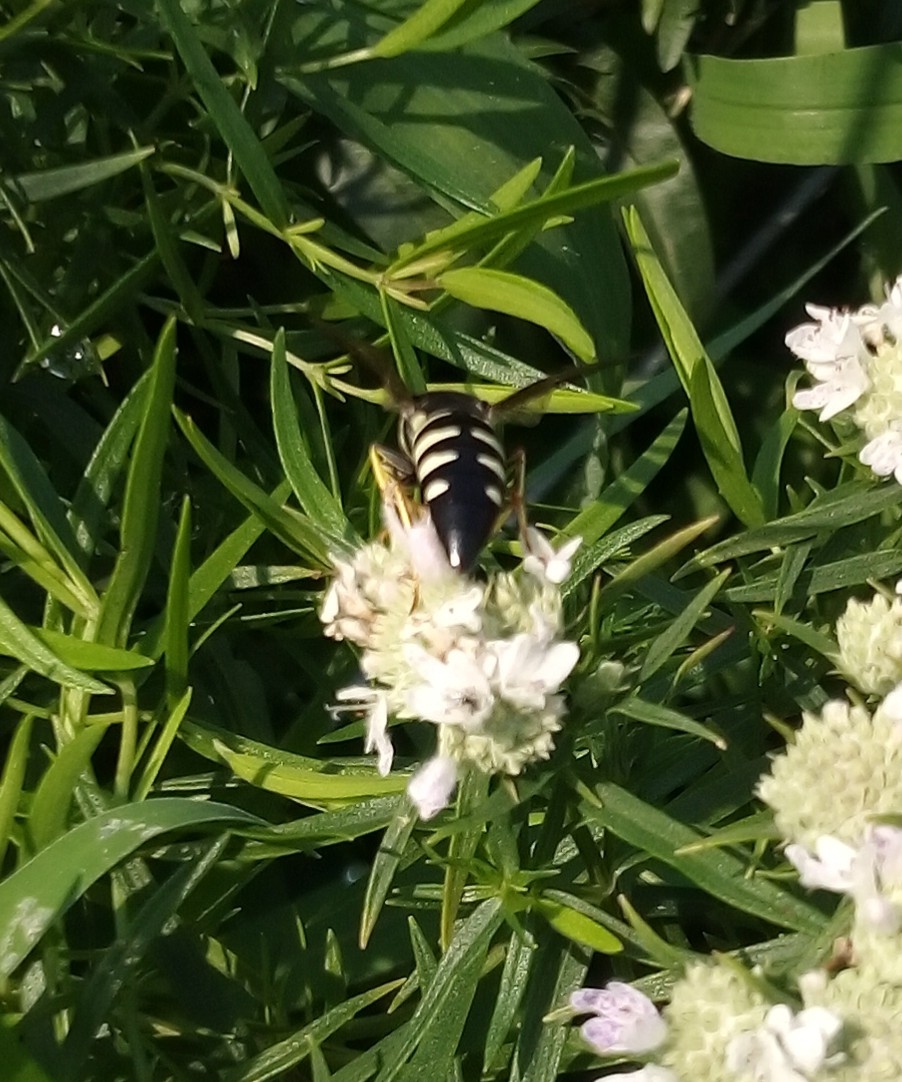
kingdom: Animalia
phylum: Arthropoda
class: Insecta
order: Hymenoptera
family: Crabronidae
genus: Bicyrtes
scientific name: Bicyrtes quadrifasciatus
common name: Four-banded stink bug hunter wasp
